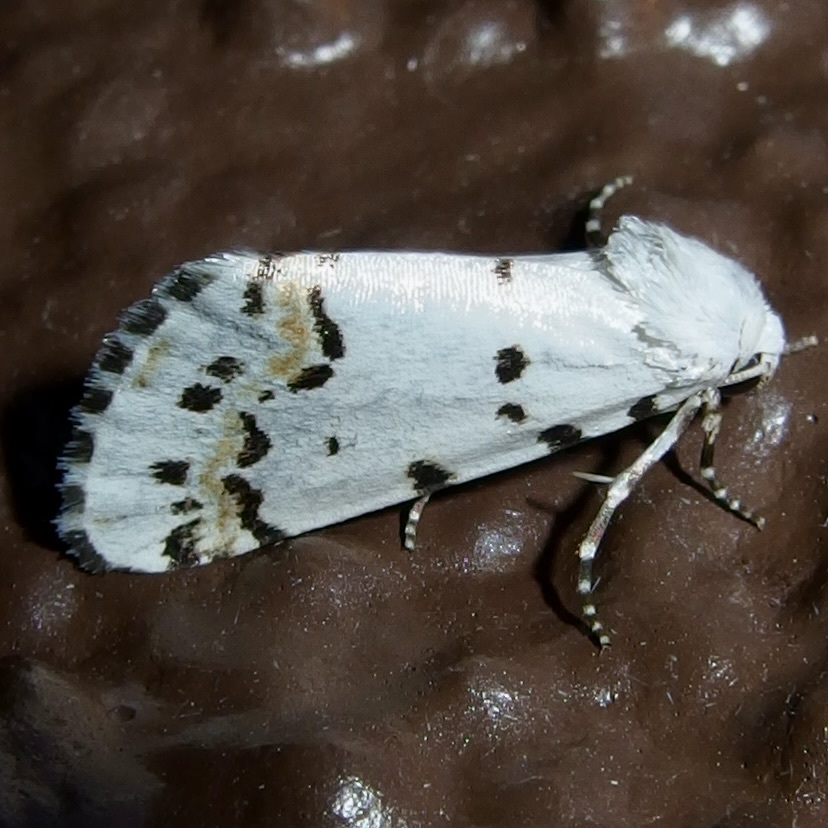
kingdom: Animalia
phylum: Arthropoda
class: Insecta
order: Lepidoptera
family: Noctuidae
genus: Grotella
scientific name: Grotella tricolor
